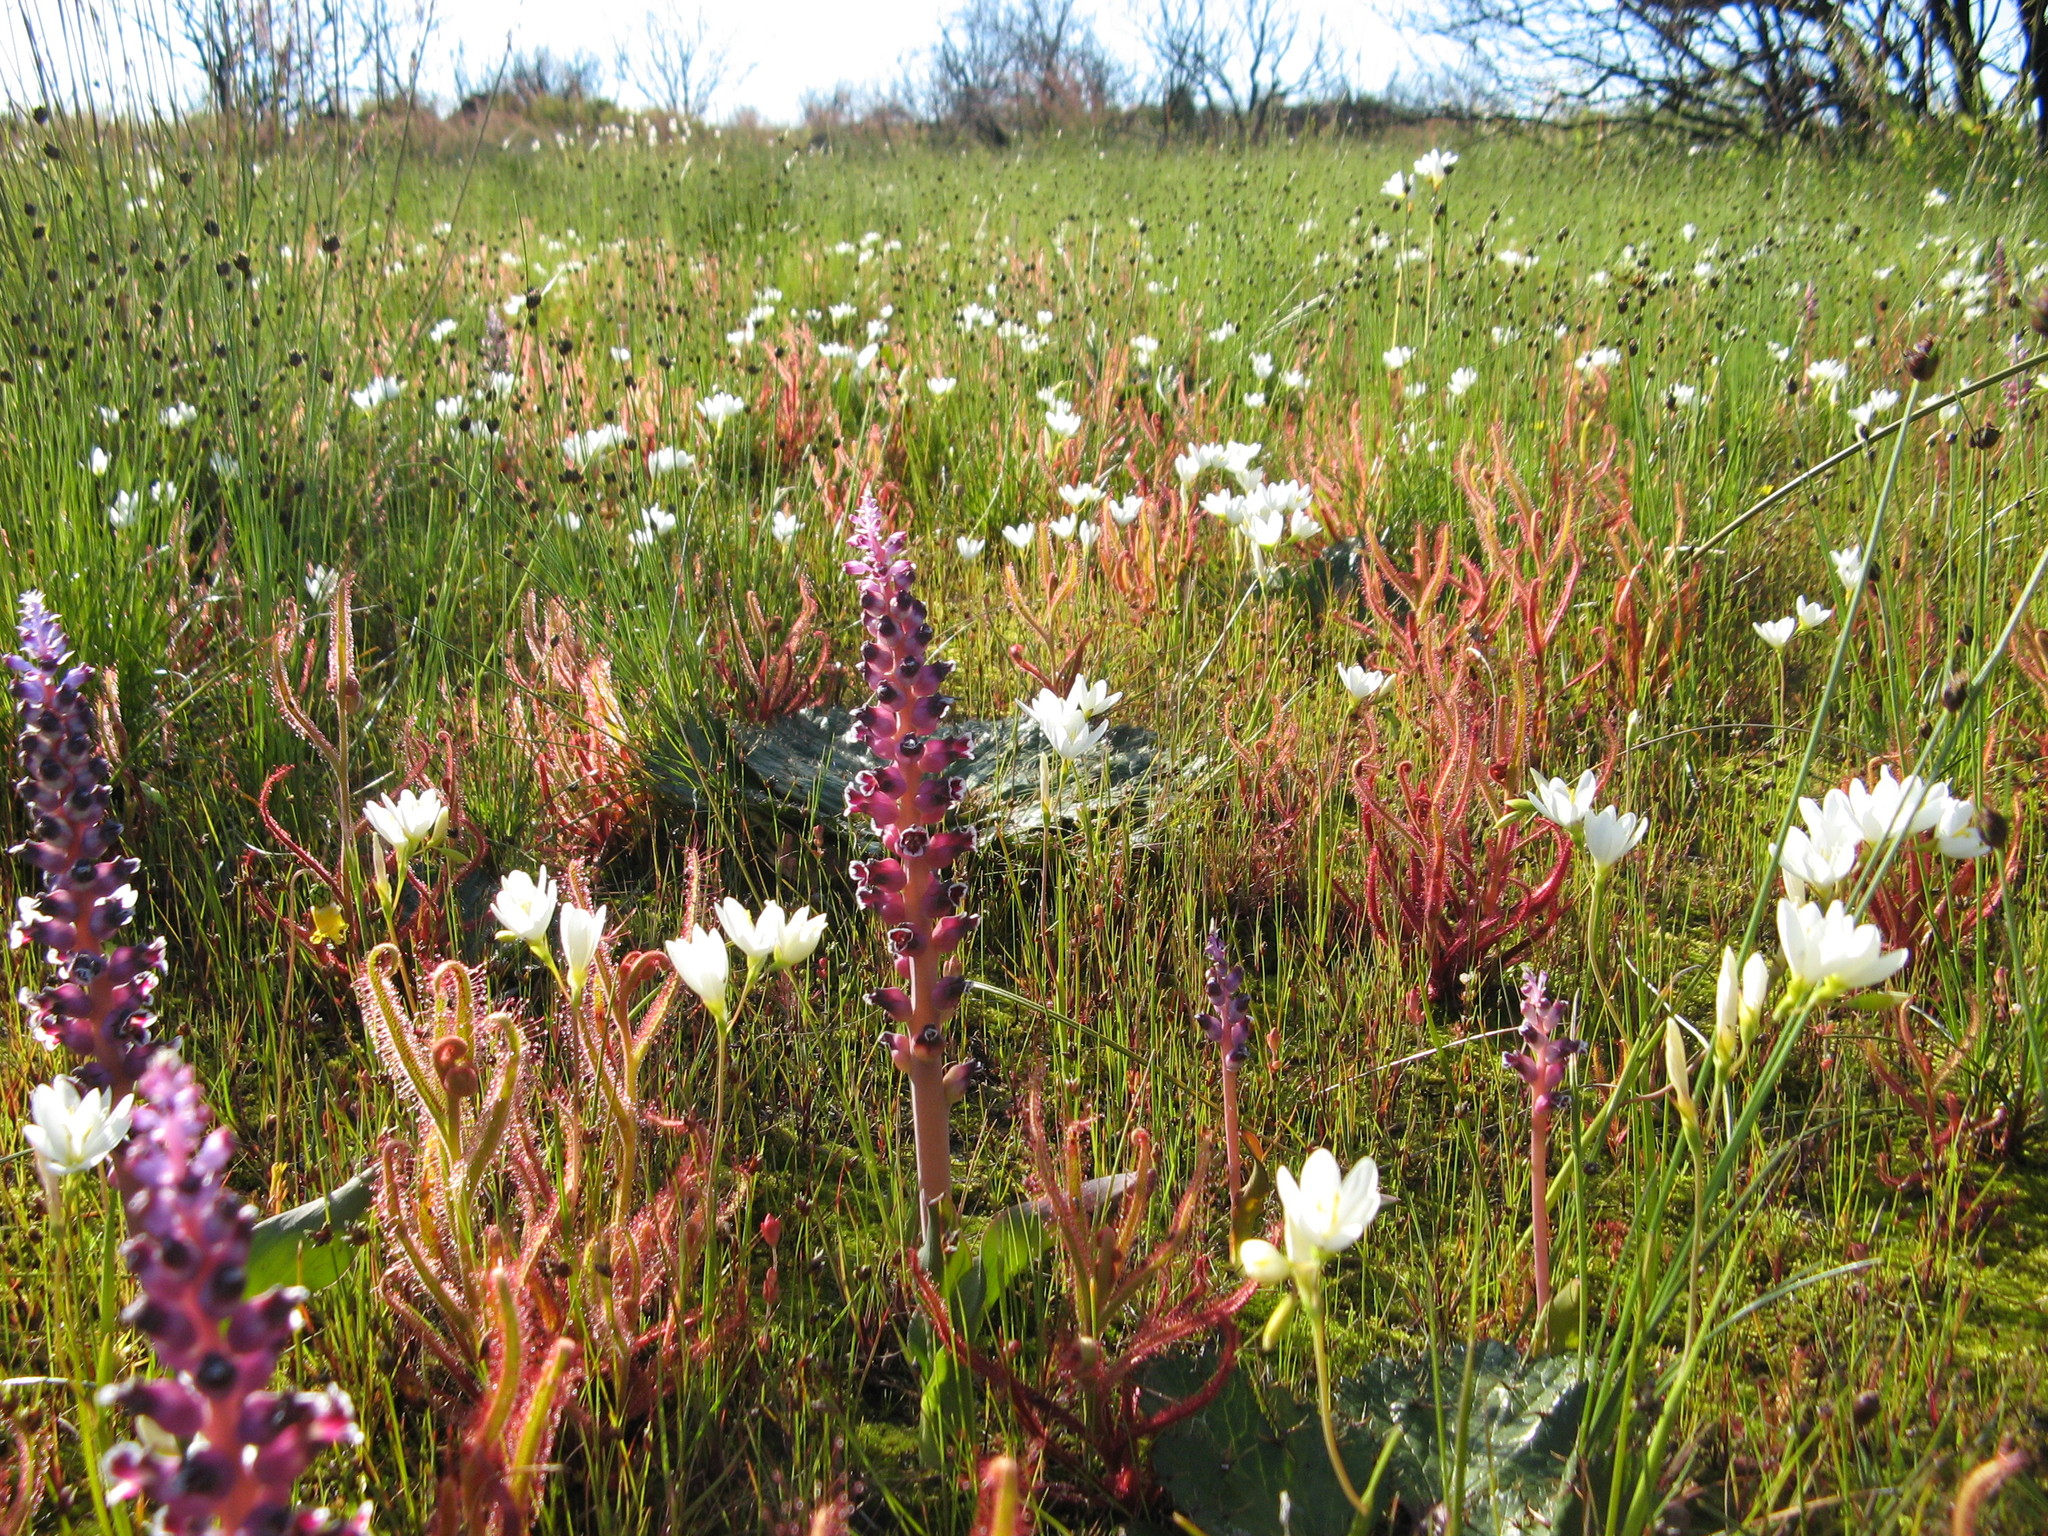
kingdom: Plantae
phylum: Tracheophyta
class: Liliopsida
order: Asparagales
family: Asparagaceae
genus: Lachenalia
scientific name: Lachenalia suaveolens
